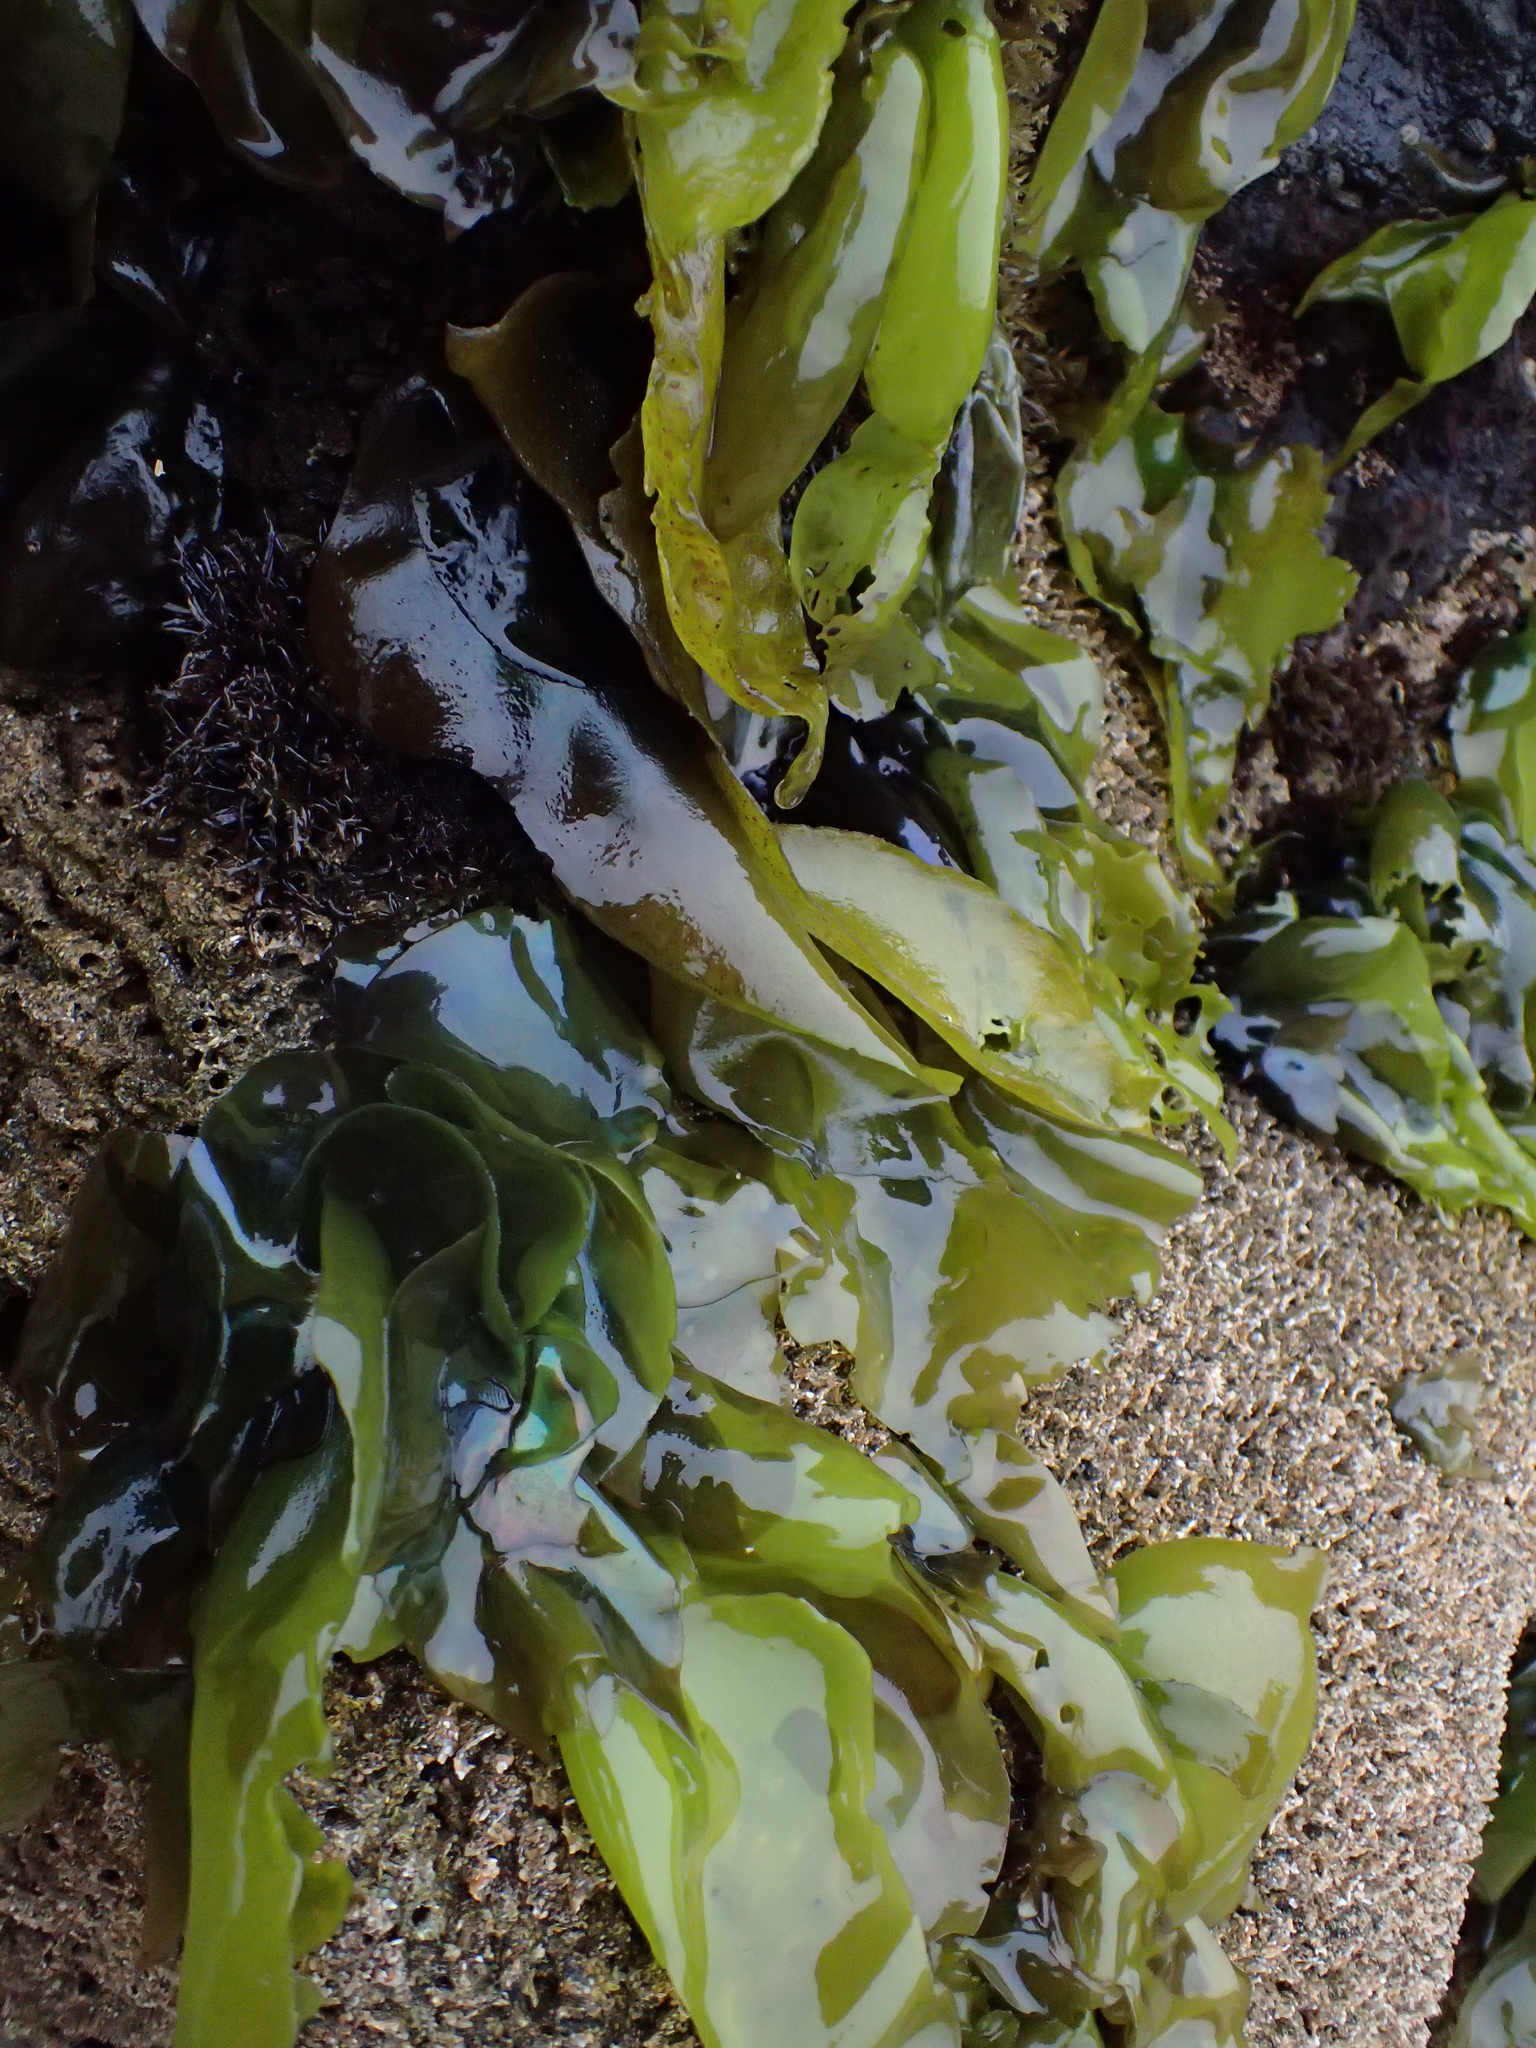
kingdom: Plantae
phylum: Rhodophyta
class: Florideophyceae
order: Gigartinales
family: Gigartinaceae
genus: Mazzaella
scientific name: Mazzaella flaccida
